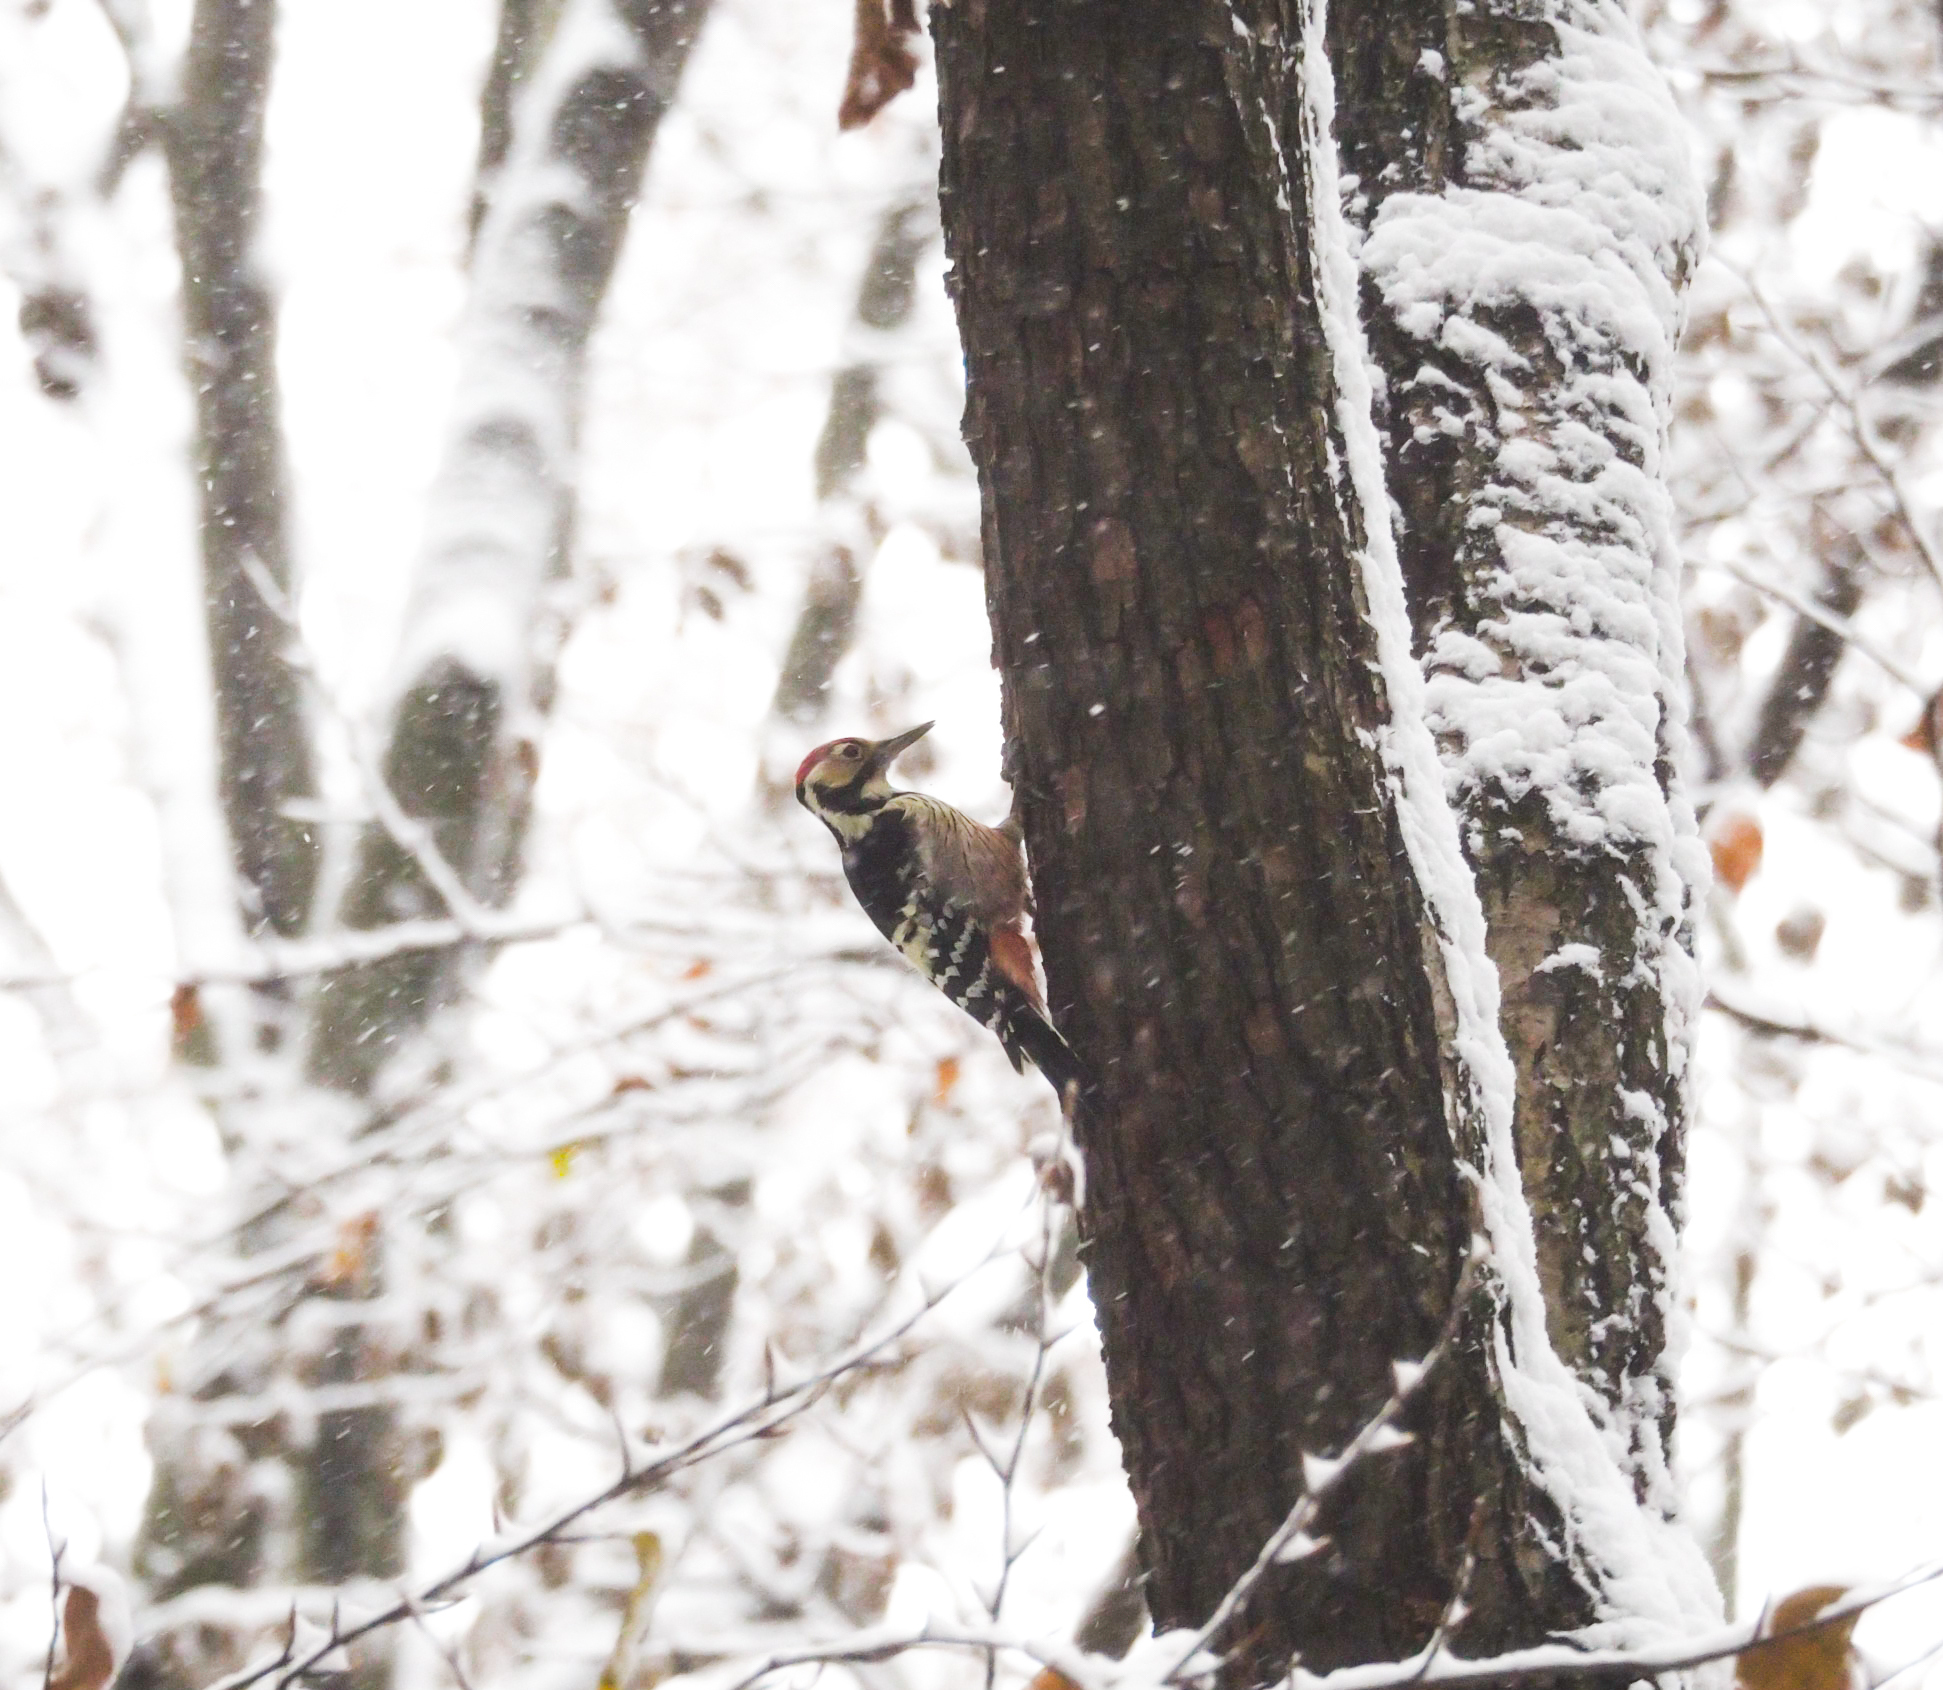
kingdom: Animalia
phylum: Chordata
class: Aves
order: Piciformes
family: Picidae
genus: Dendrocopos
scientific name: Dendrocopos leucotos
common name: White-backed woodpecker
